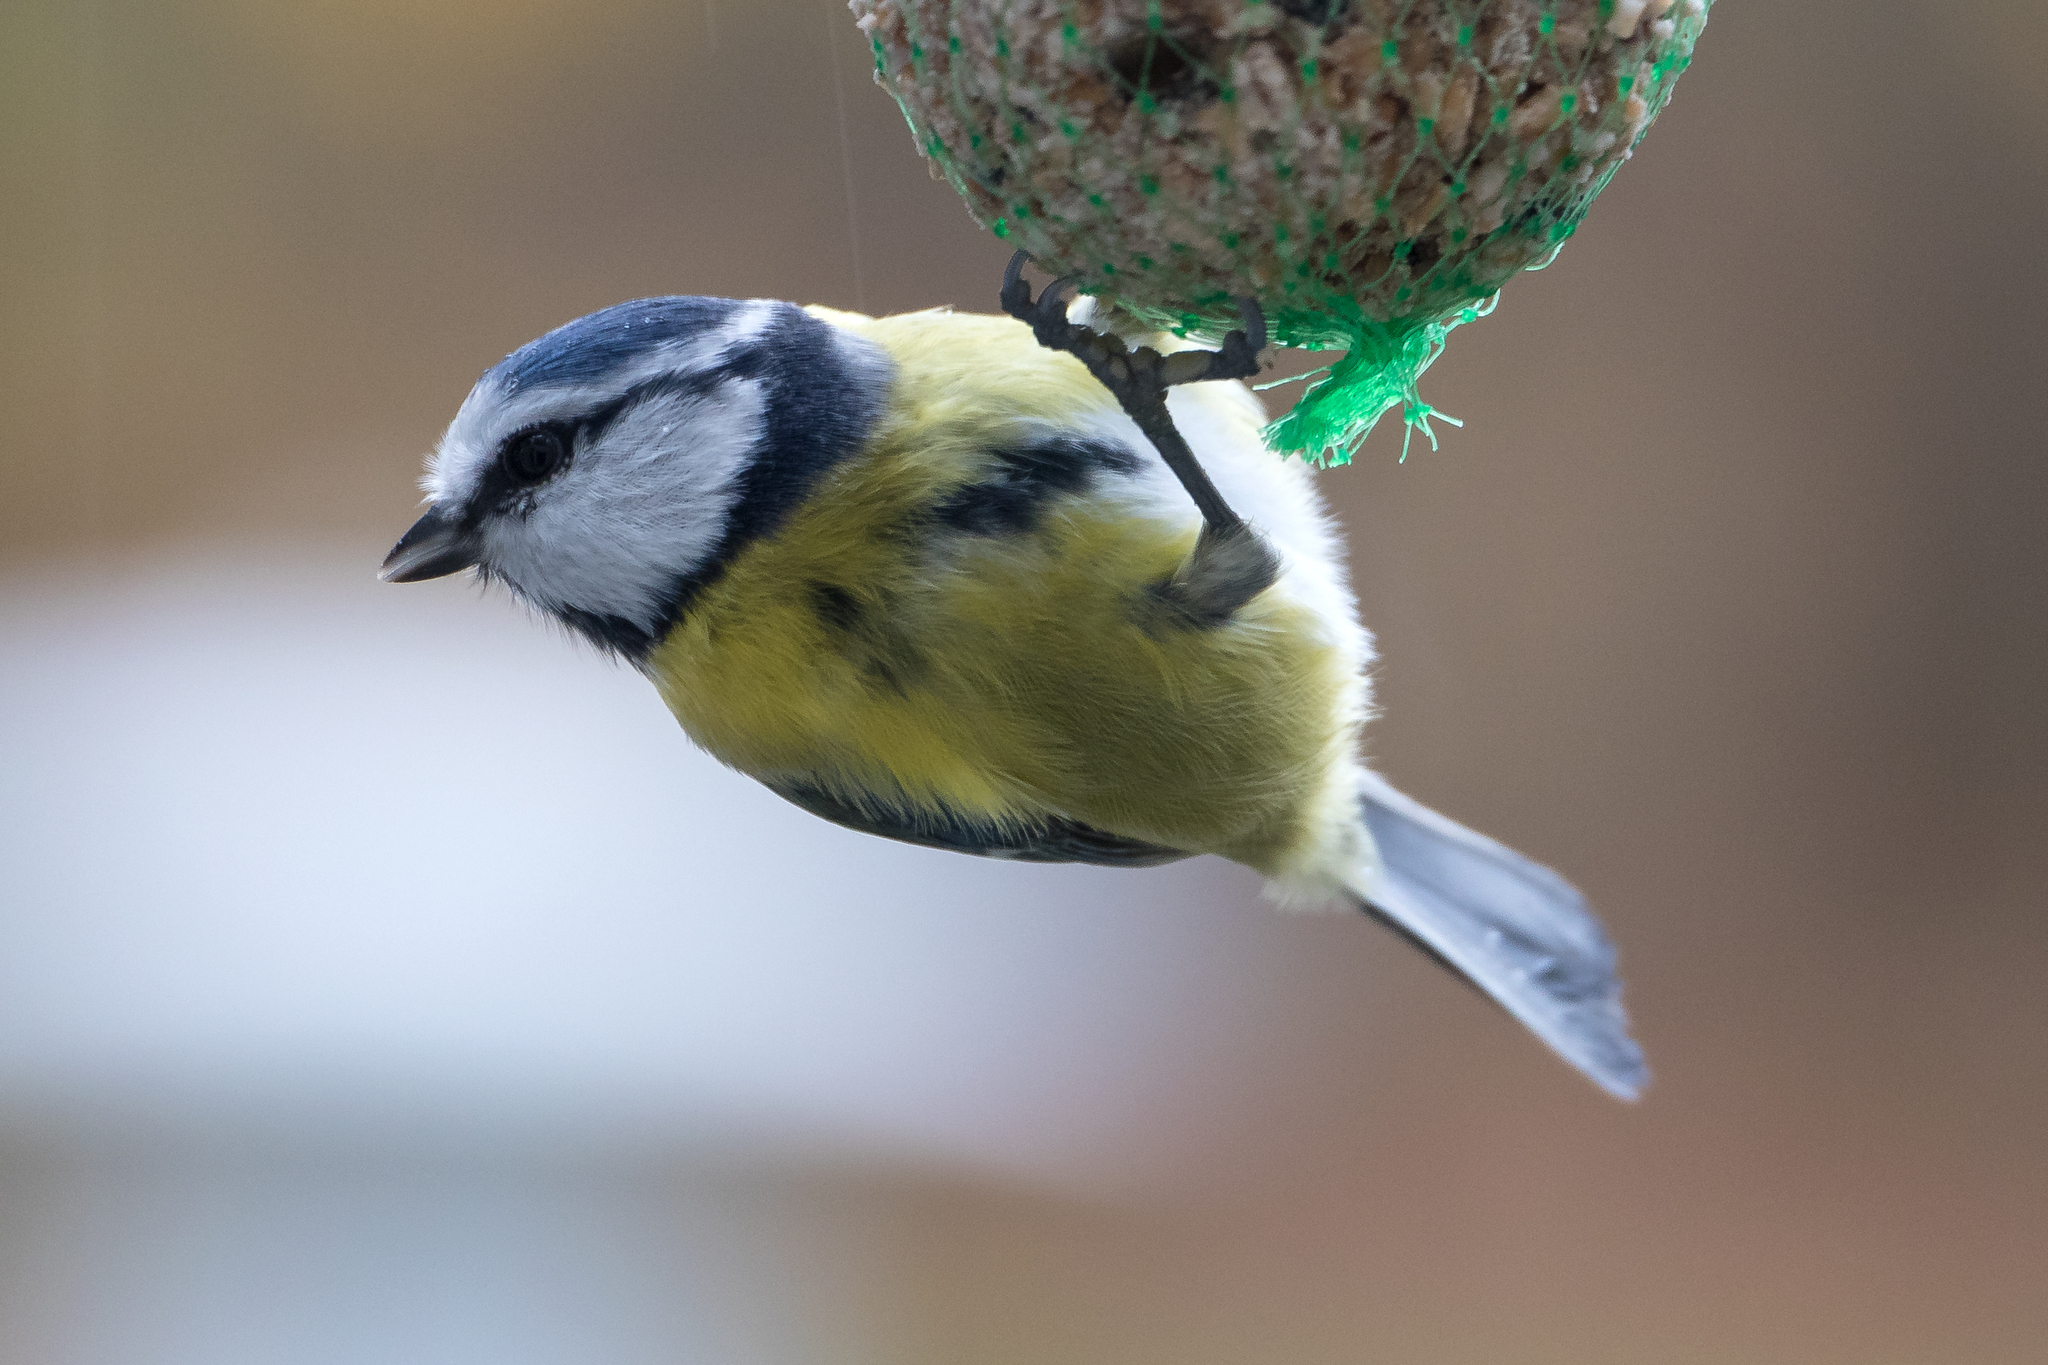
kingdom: Animalia
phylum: Chordata
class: Aves
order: Passeriformes
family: Paridae
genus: Cyanistes
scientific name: Cyanistes caeruleus
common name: Eurasian blue tit
